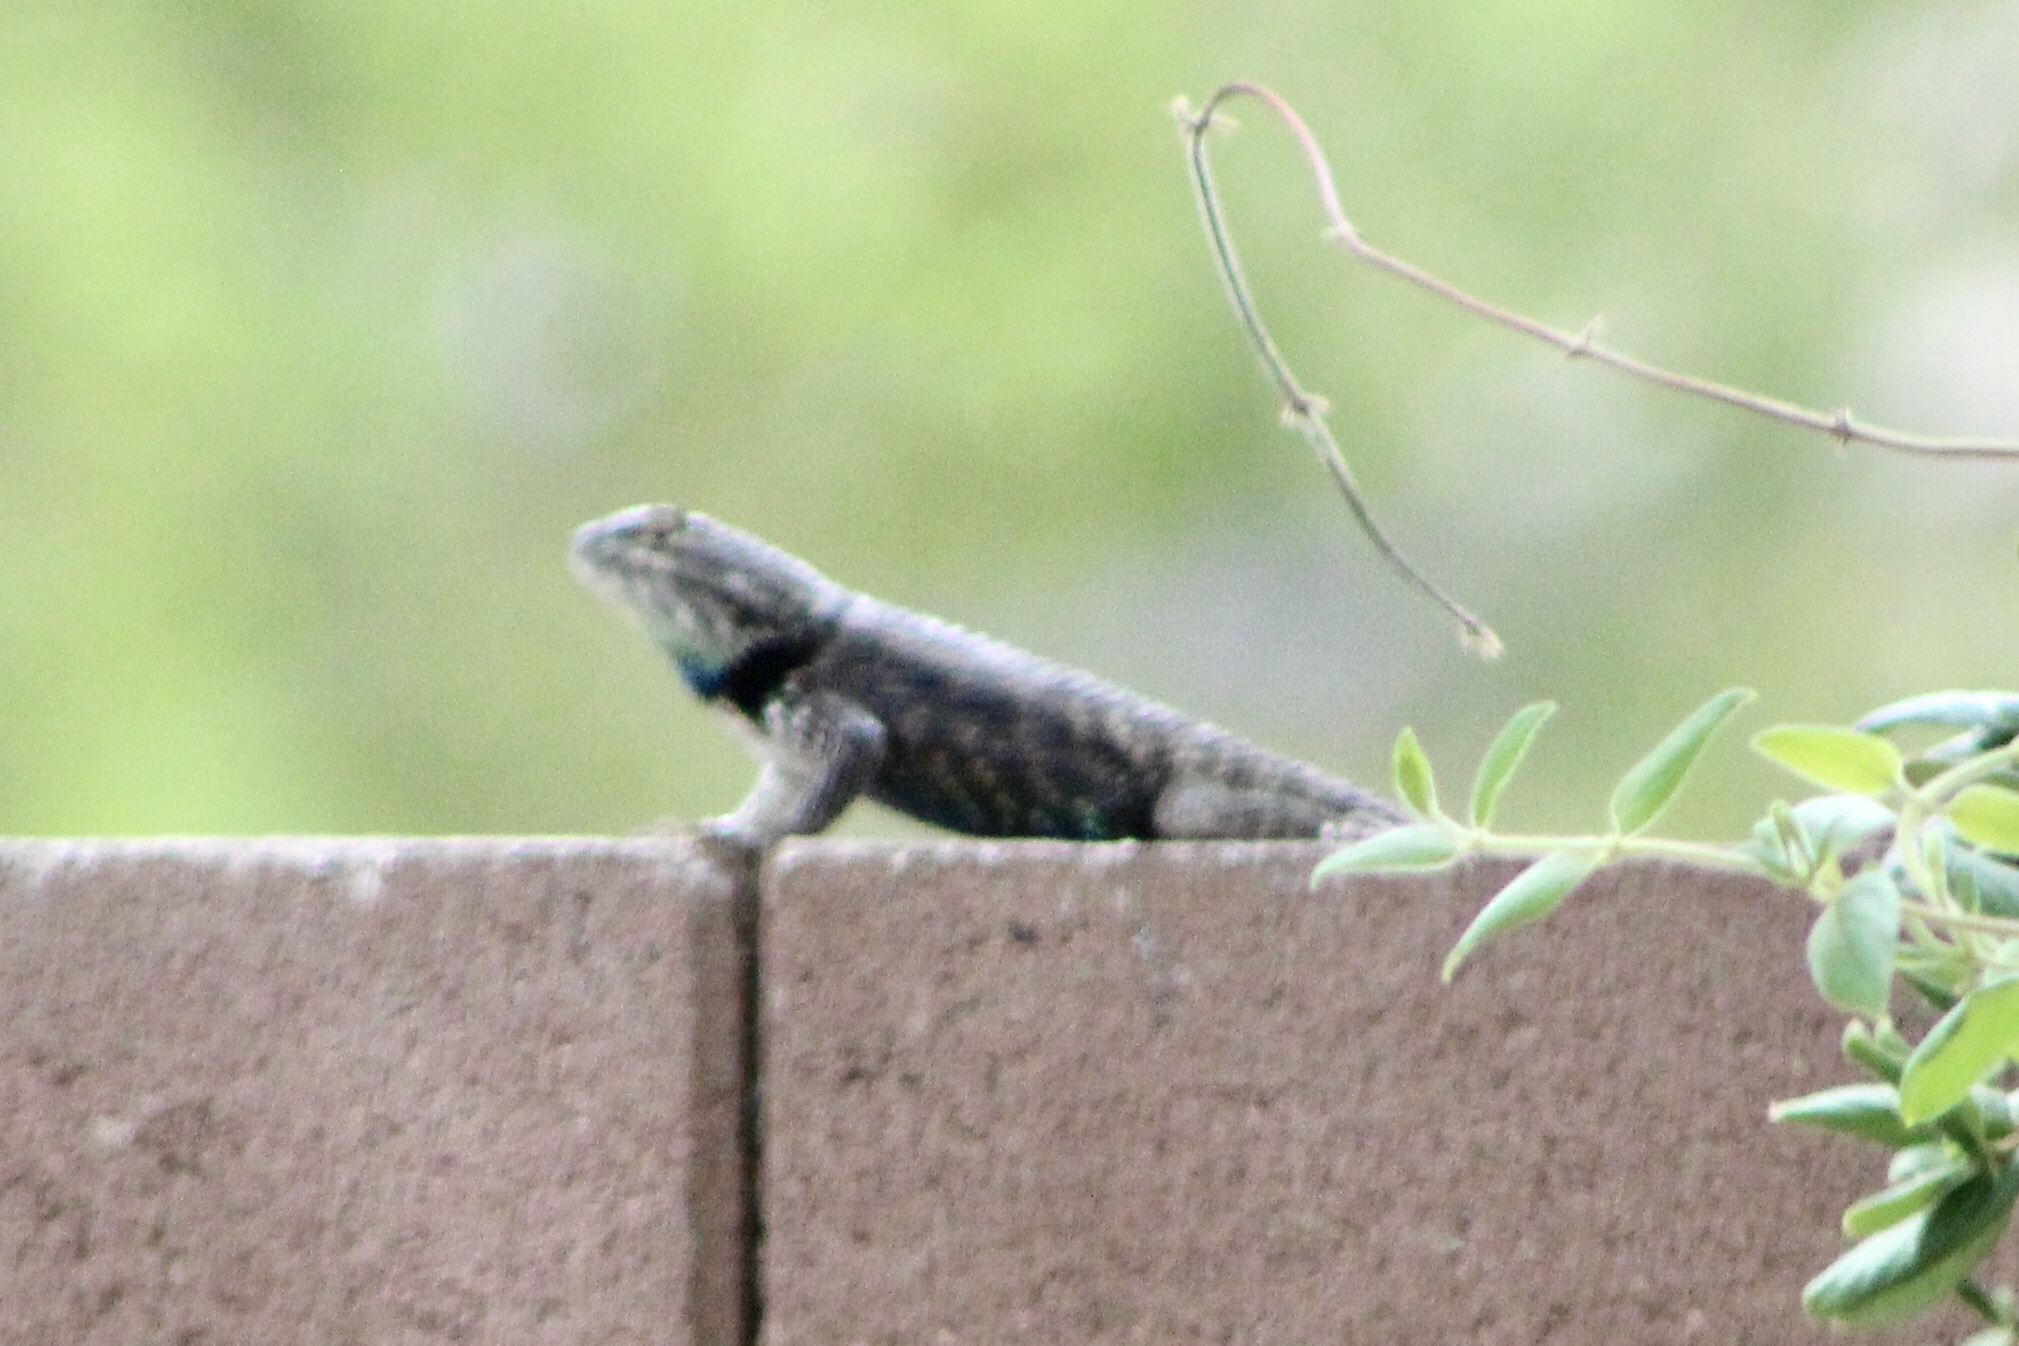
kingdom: Animalia
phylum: Chordata
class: Squamata
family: Phrynosomatidae
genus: Sceloporus
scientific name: Sceloporus magister
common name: Desert spiny lizard
